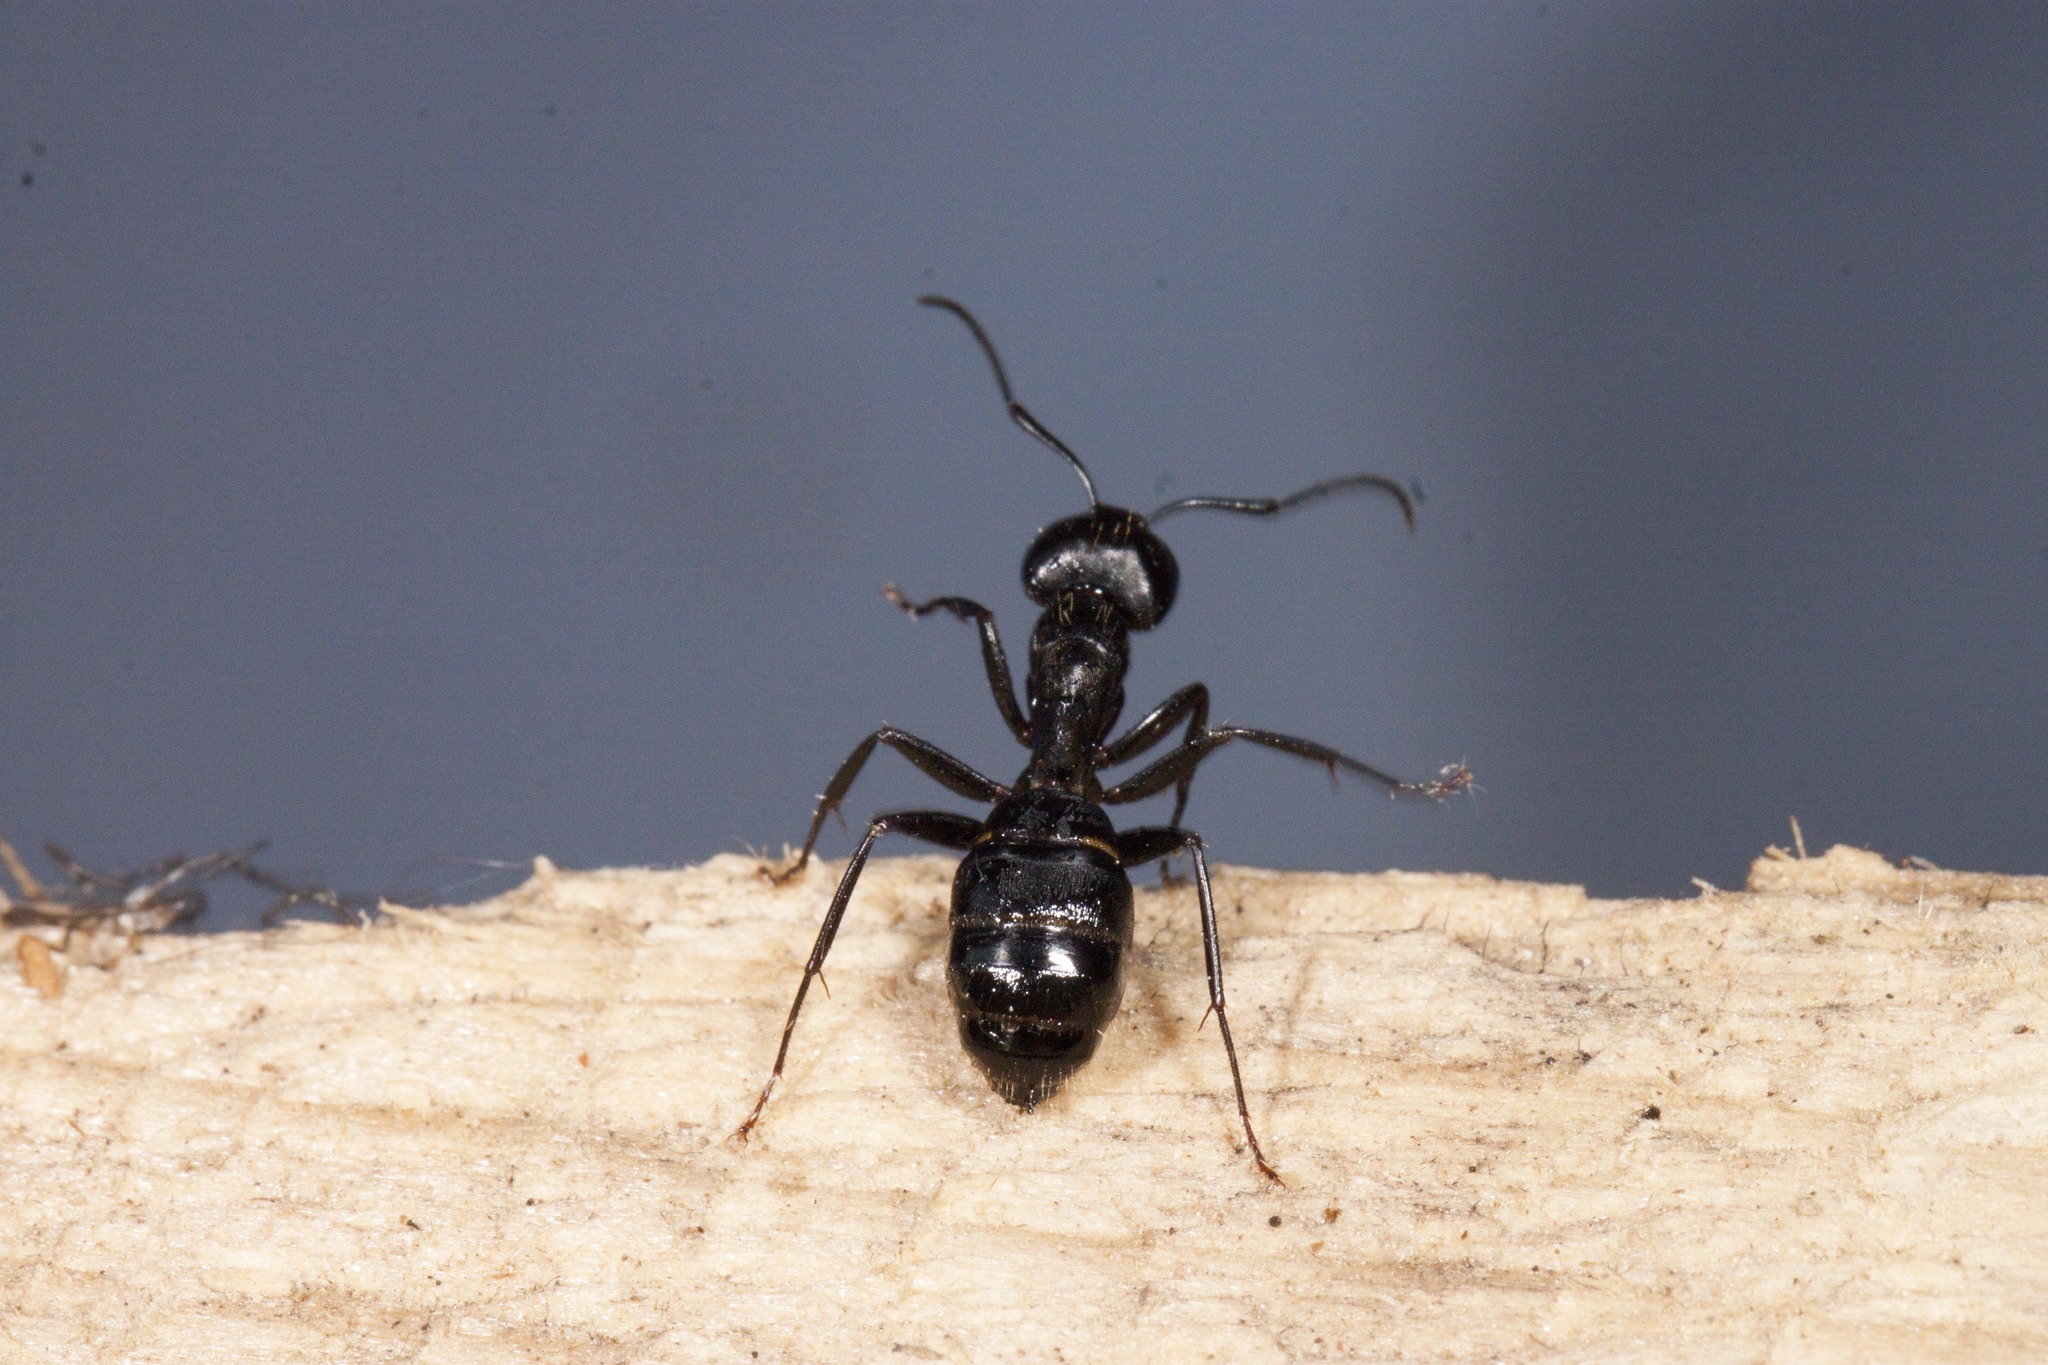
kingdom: Animalia
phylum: Arthropoda
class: Insecta
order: Hymenoptera
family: Formicidae
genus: Camponotus
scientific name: Camponotus pennsylvanicus
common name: Black carpenter ant
